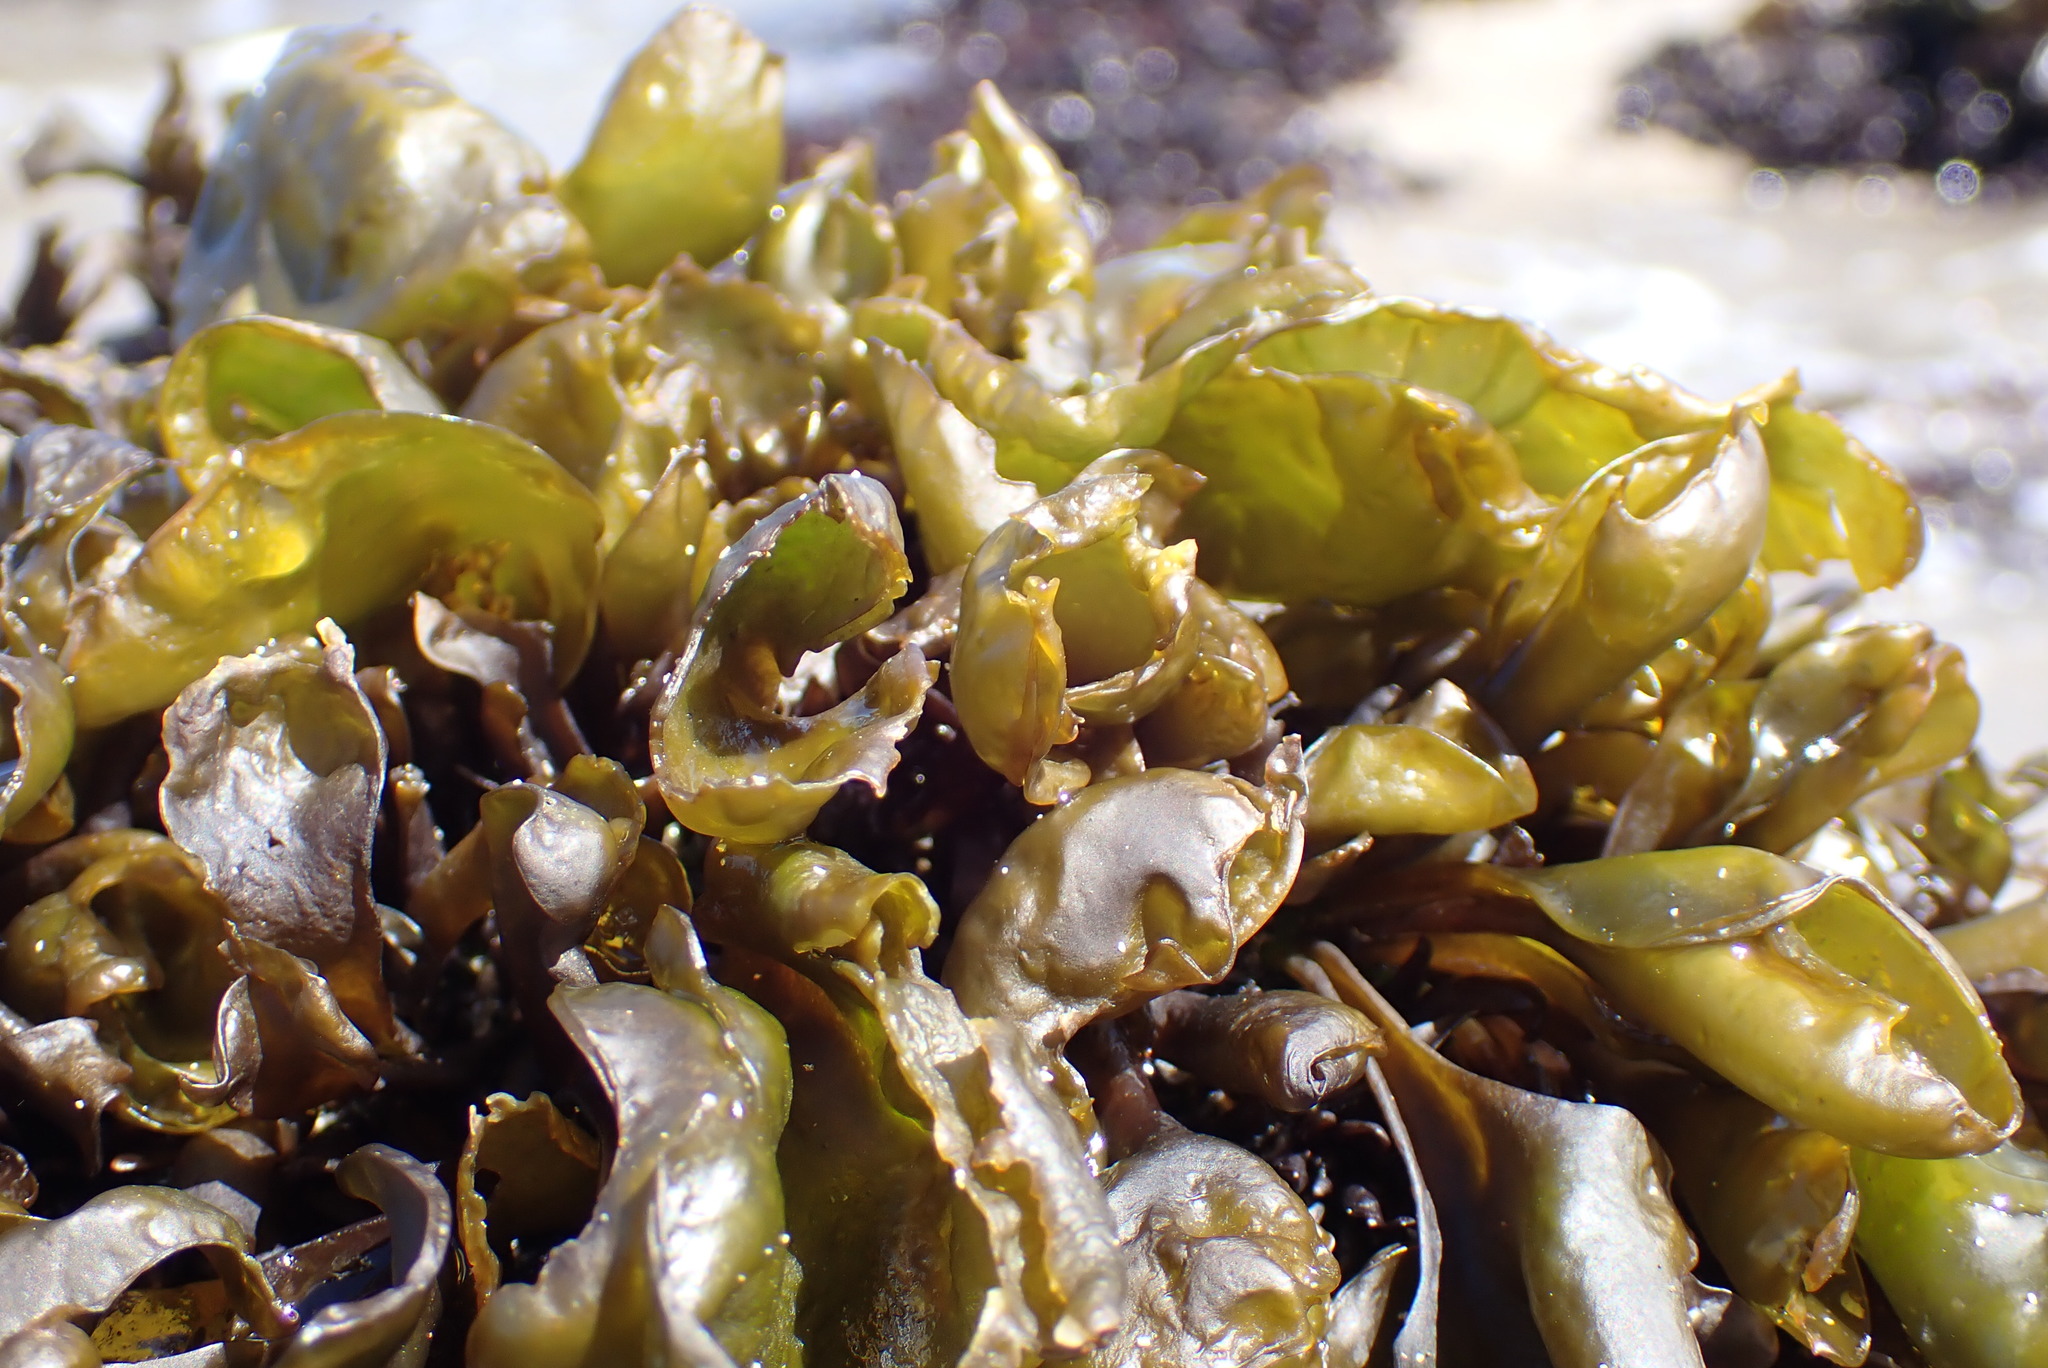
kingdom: Plantae
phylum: Rhodophyta
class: Florideophyceae
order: Gigartinales
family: Gigartinaceae
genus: Mazzaella
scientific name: Mazzaella laminarioides
